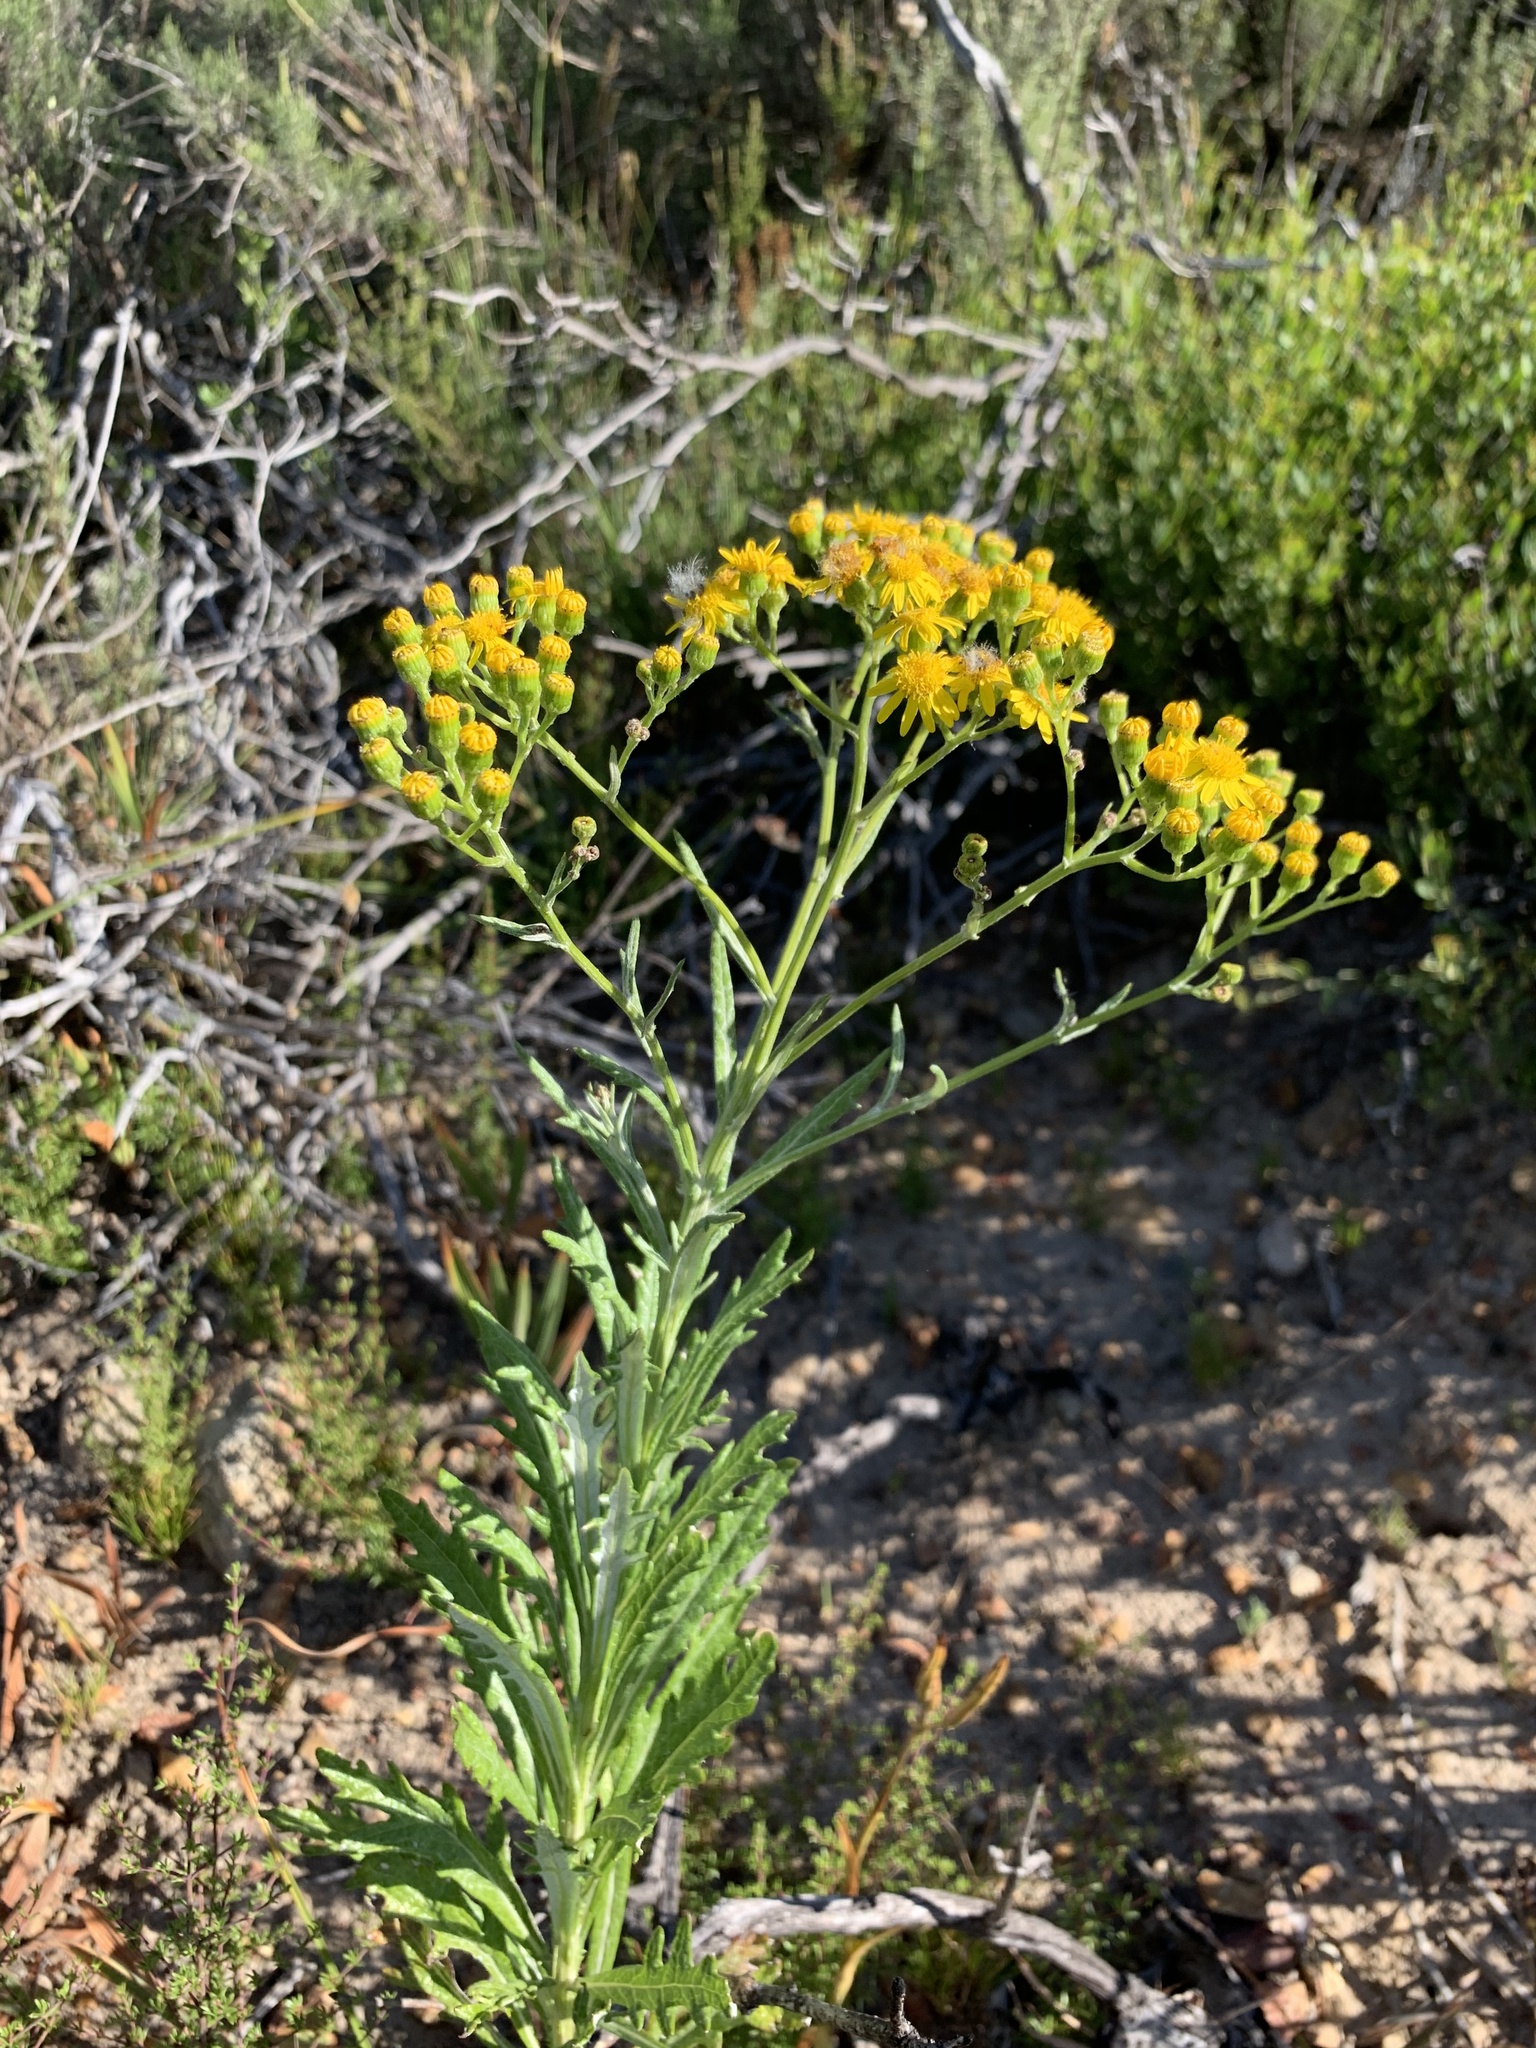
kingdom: Plantae
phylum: Tracheophyta
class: Magnoliopsida
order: Asterales
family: Asteraceae
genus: Senecio
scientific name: Senecio pterophorus
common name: Shoddy ragwort
